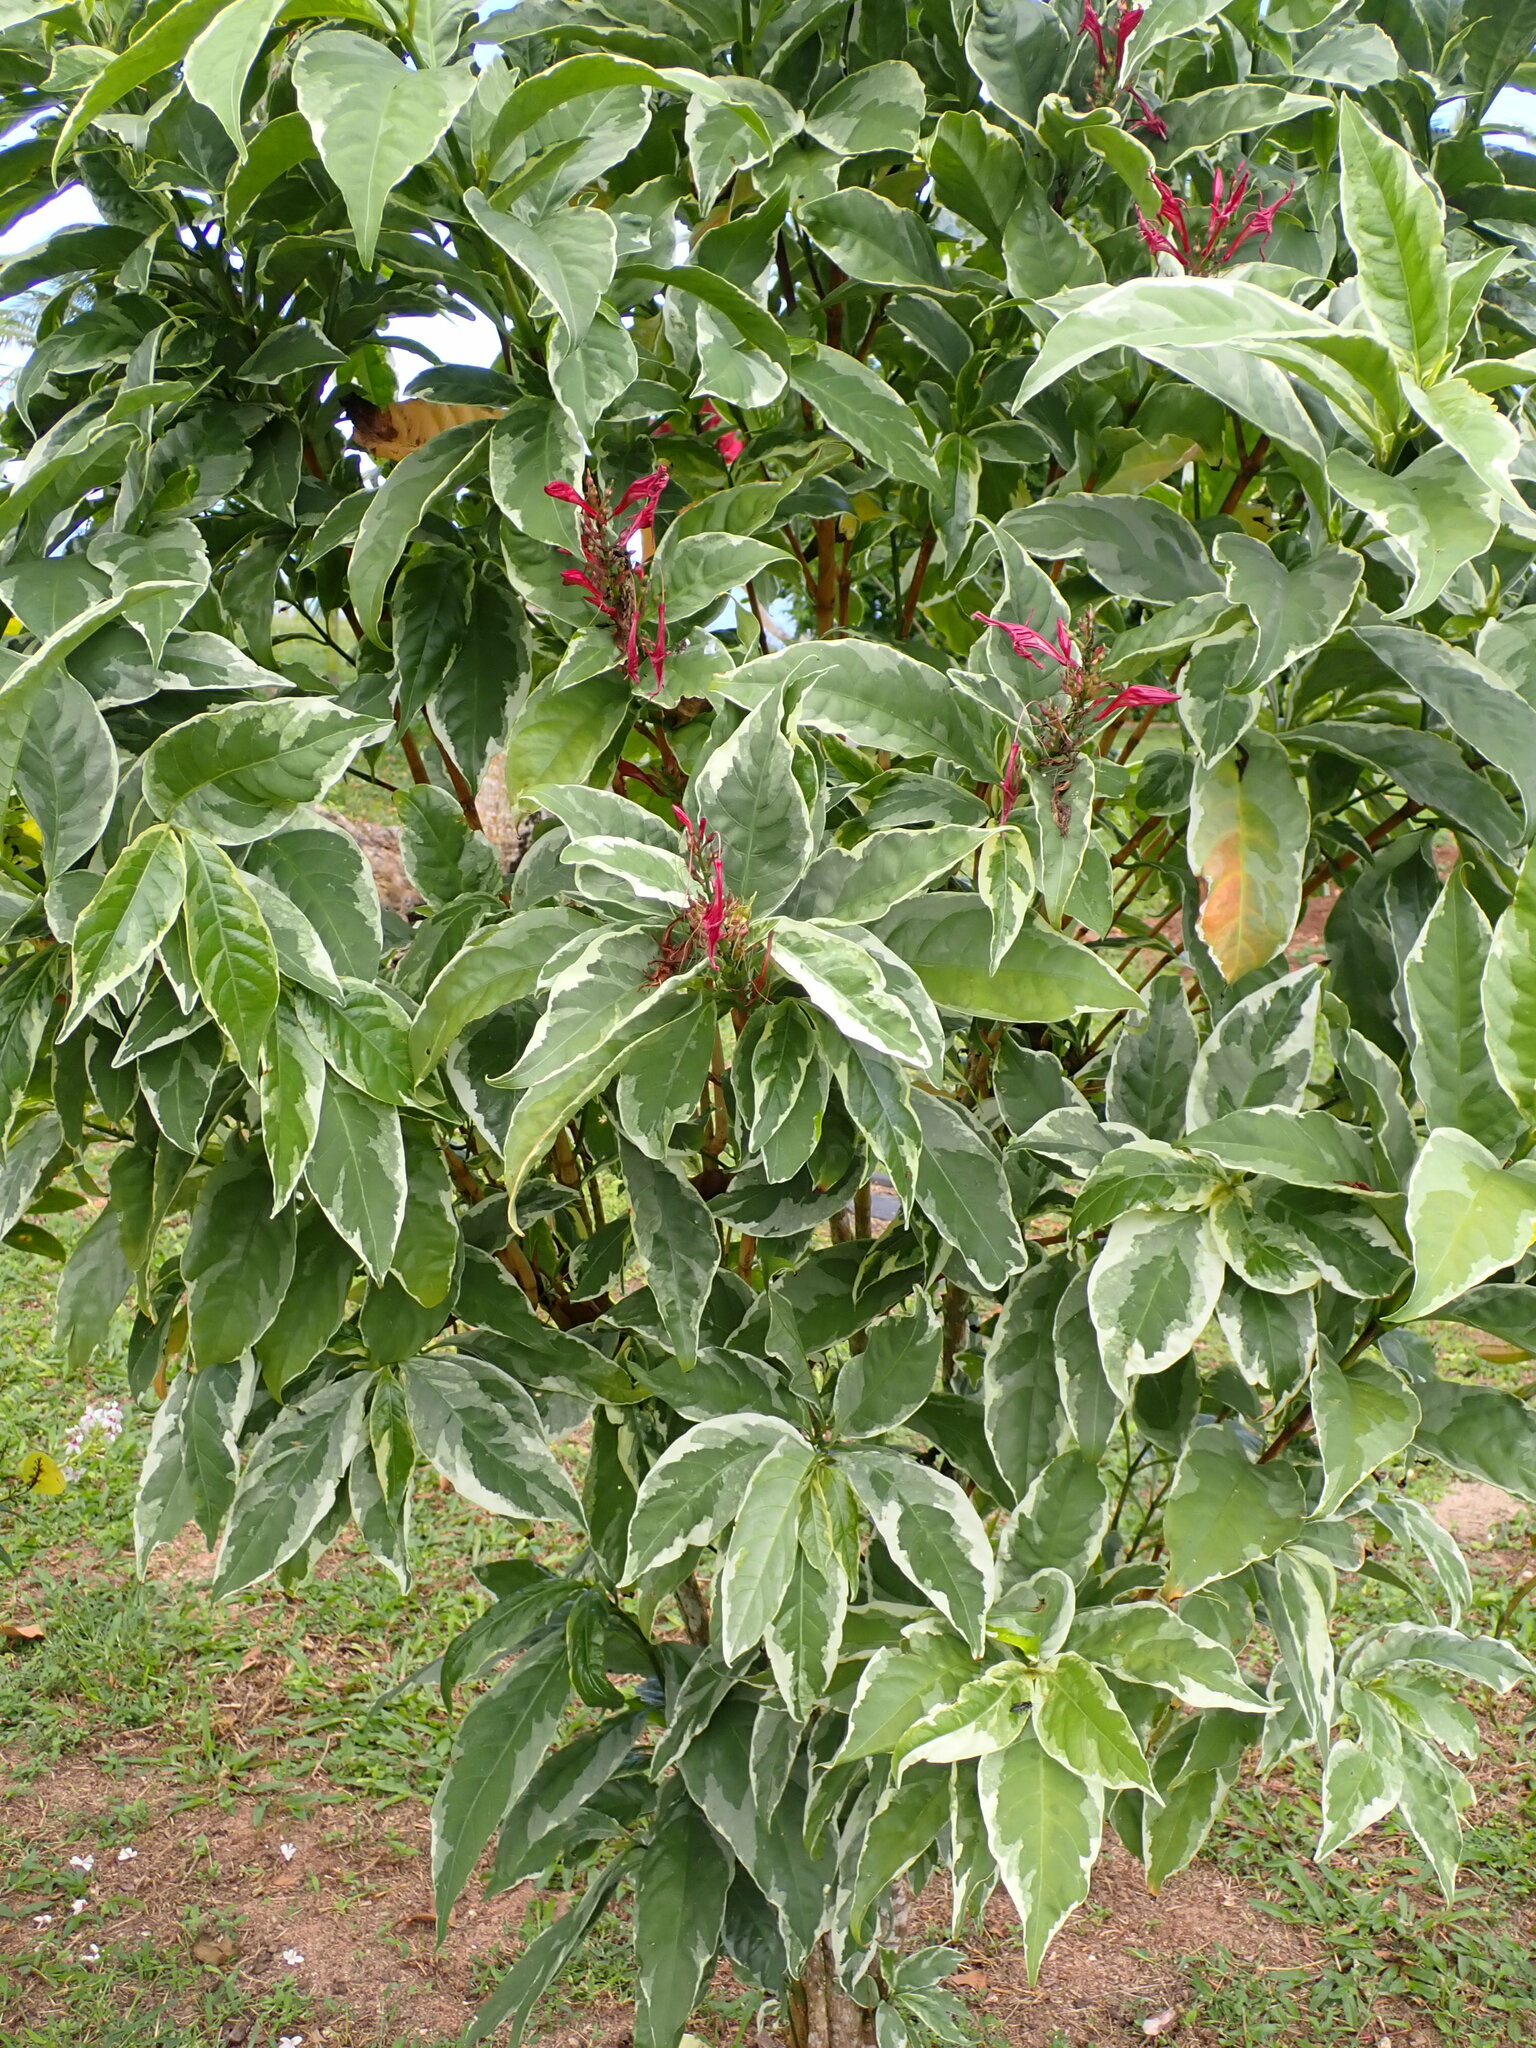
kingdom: Plantae
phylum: Tracheophyta
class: Magnoliopsida
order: Lamiales
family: Acanthaceae
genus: Graptophyllum
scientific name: Graptophyllum pictum
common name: Caricature-plant
